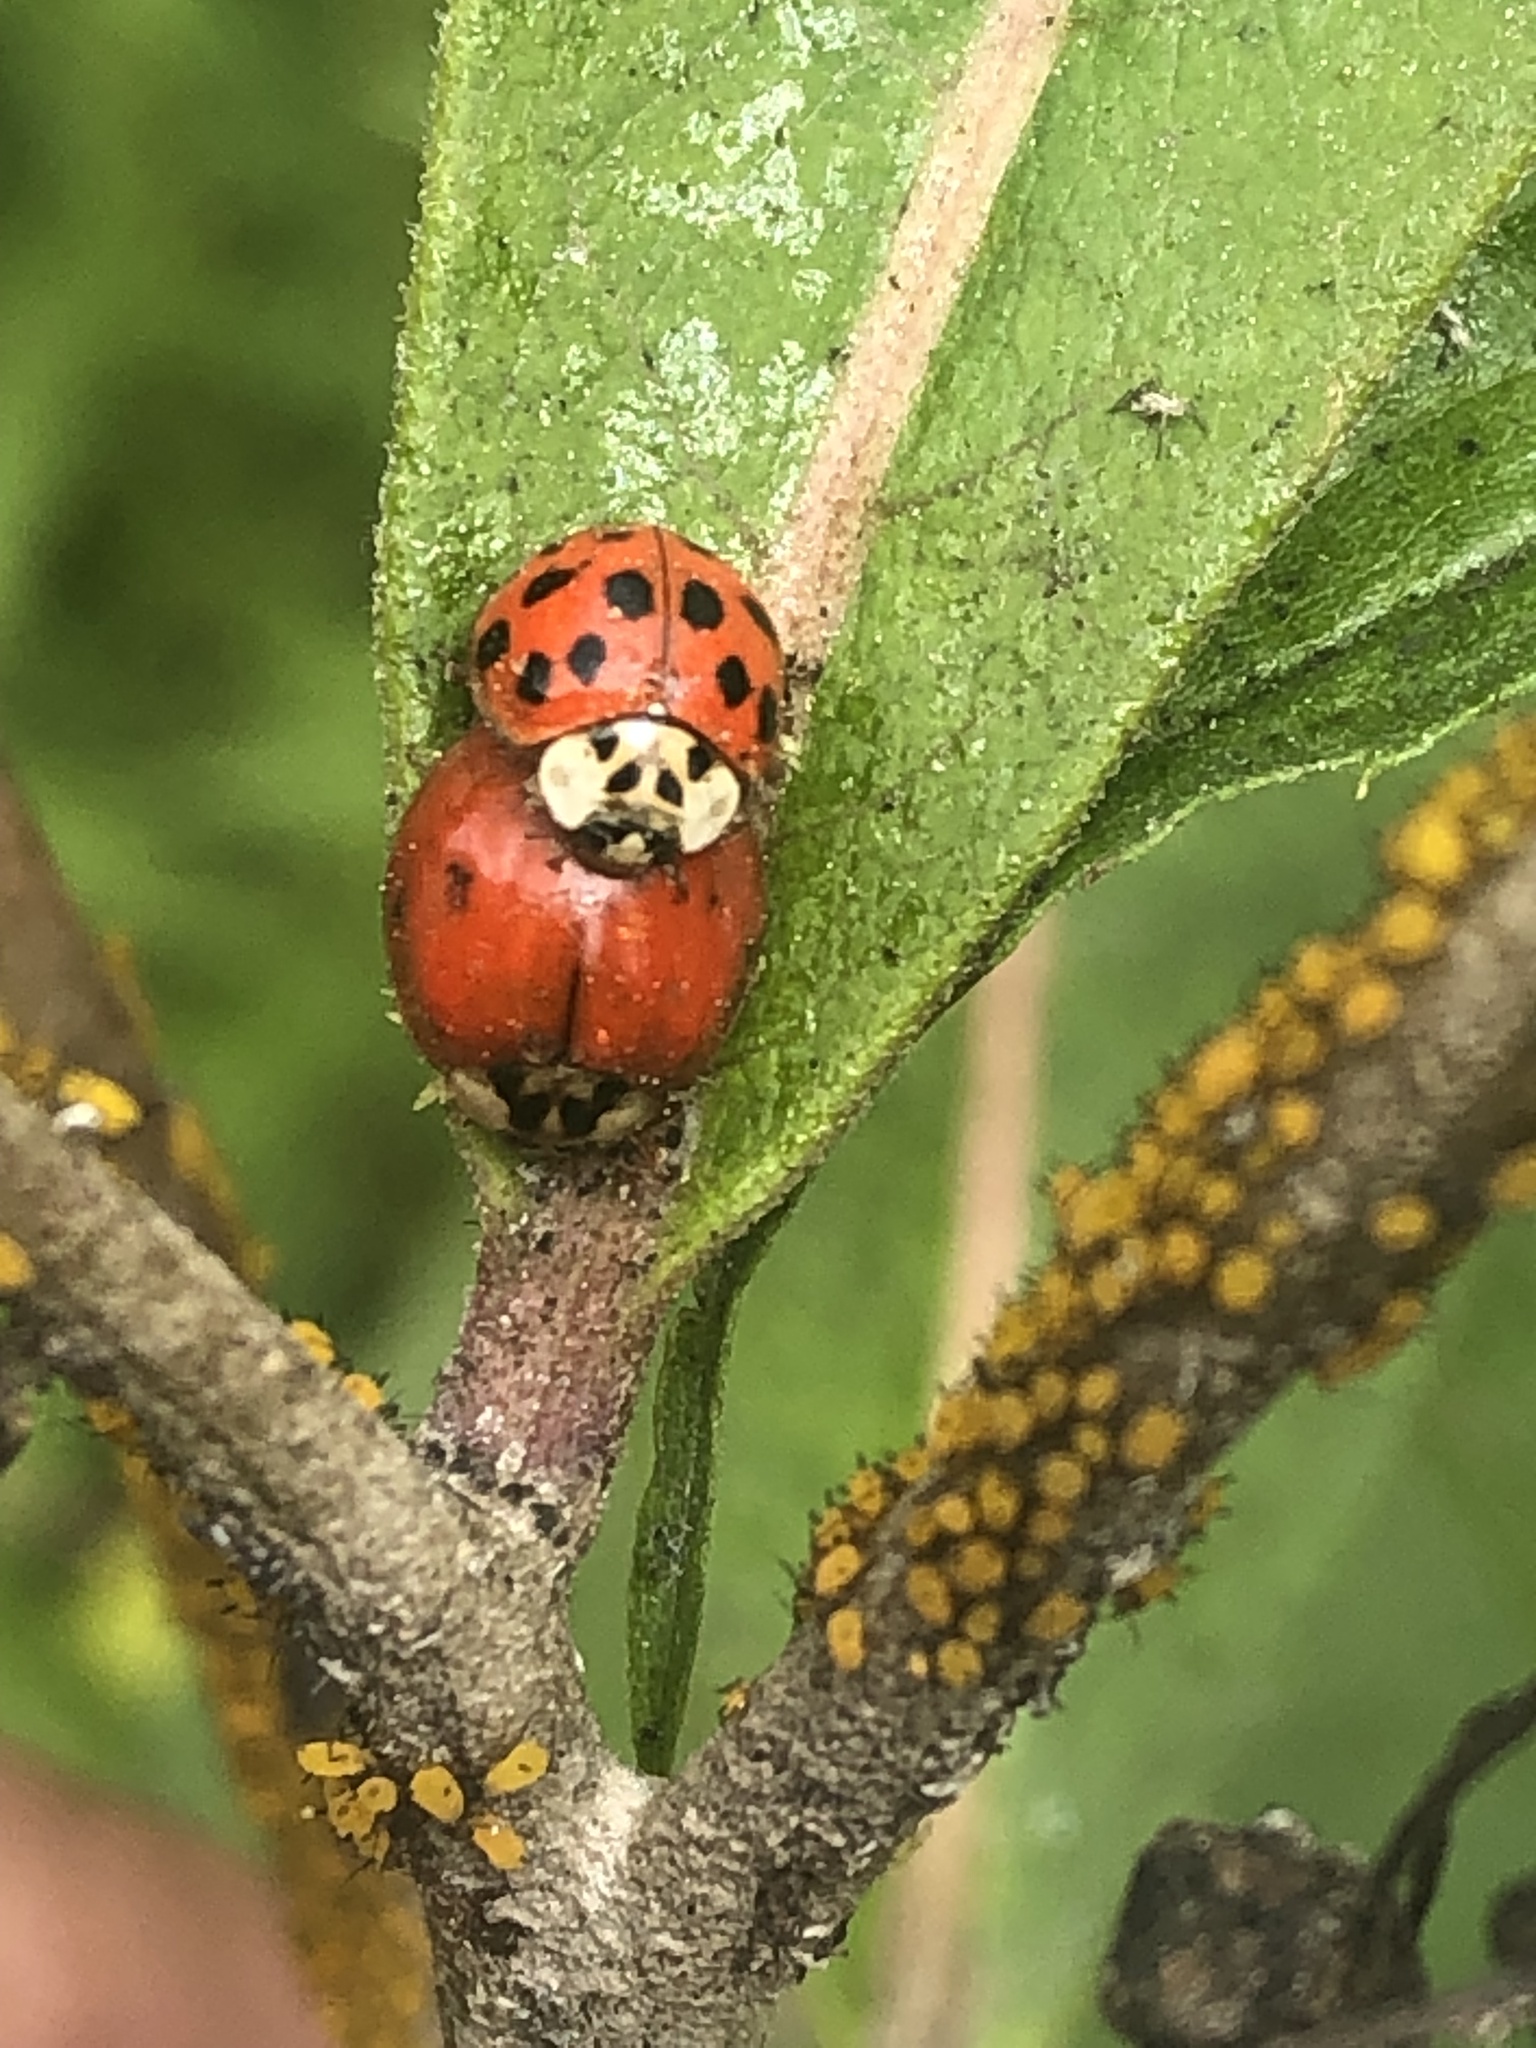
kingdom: Animalia
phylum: Arthropoda
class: Insecta
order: Coleoptera
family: Coccinellidae
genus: Harmonia
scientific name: Harmonia axyridis
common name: Harlequin ladybird
